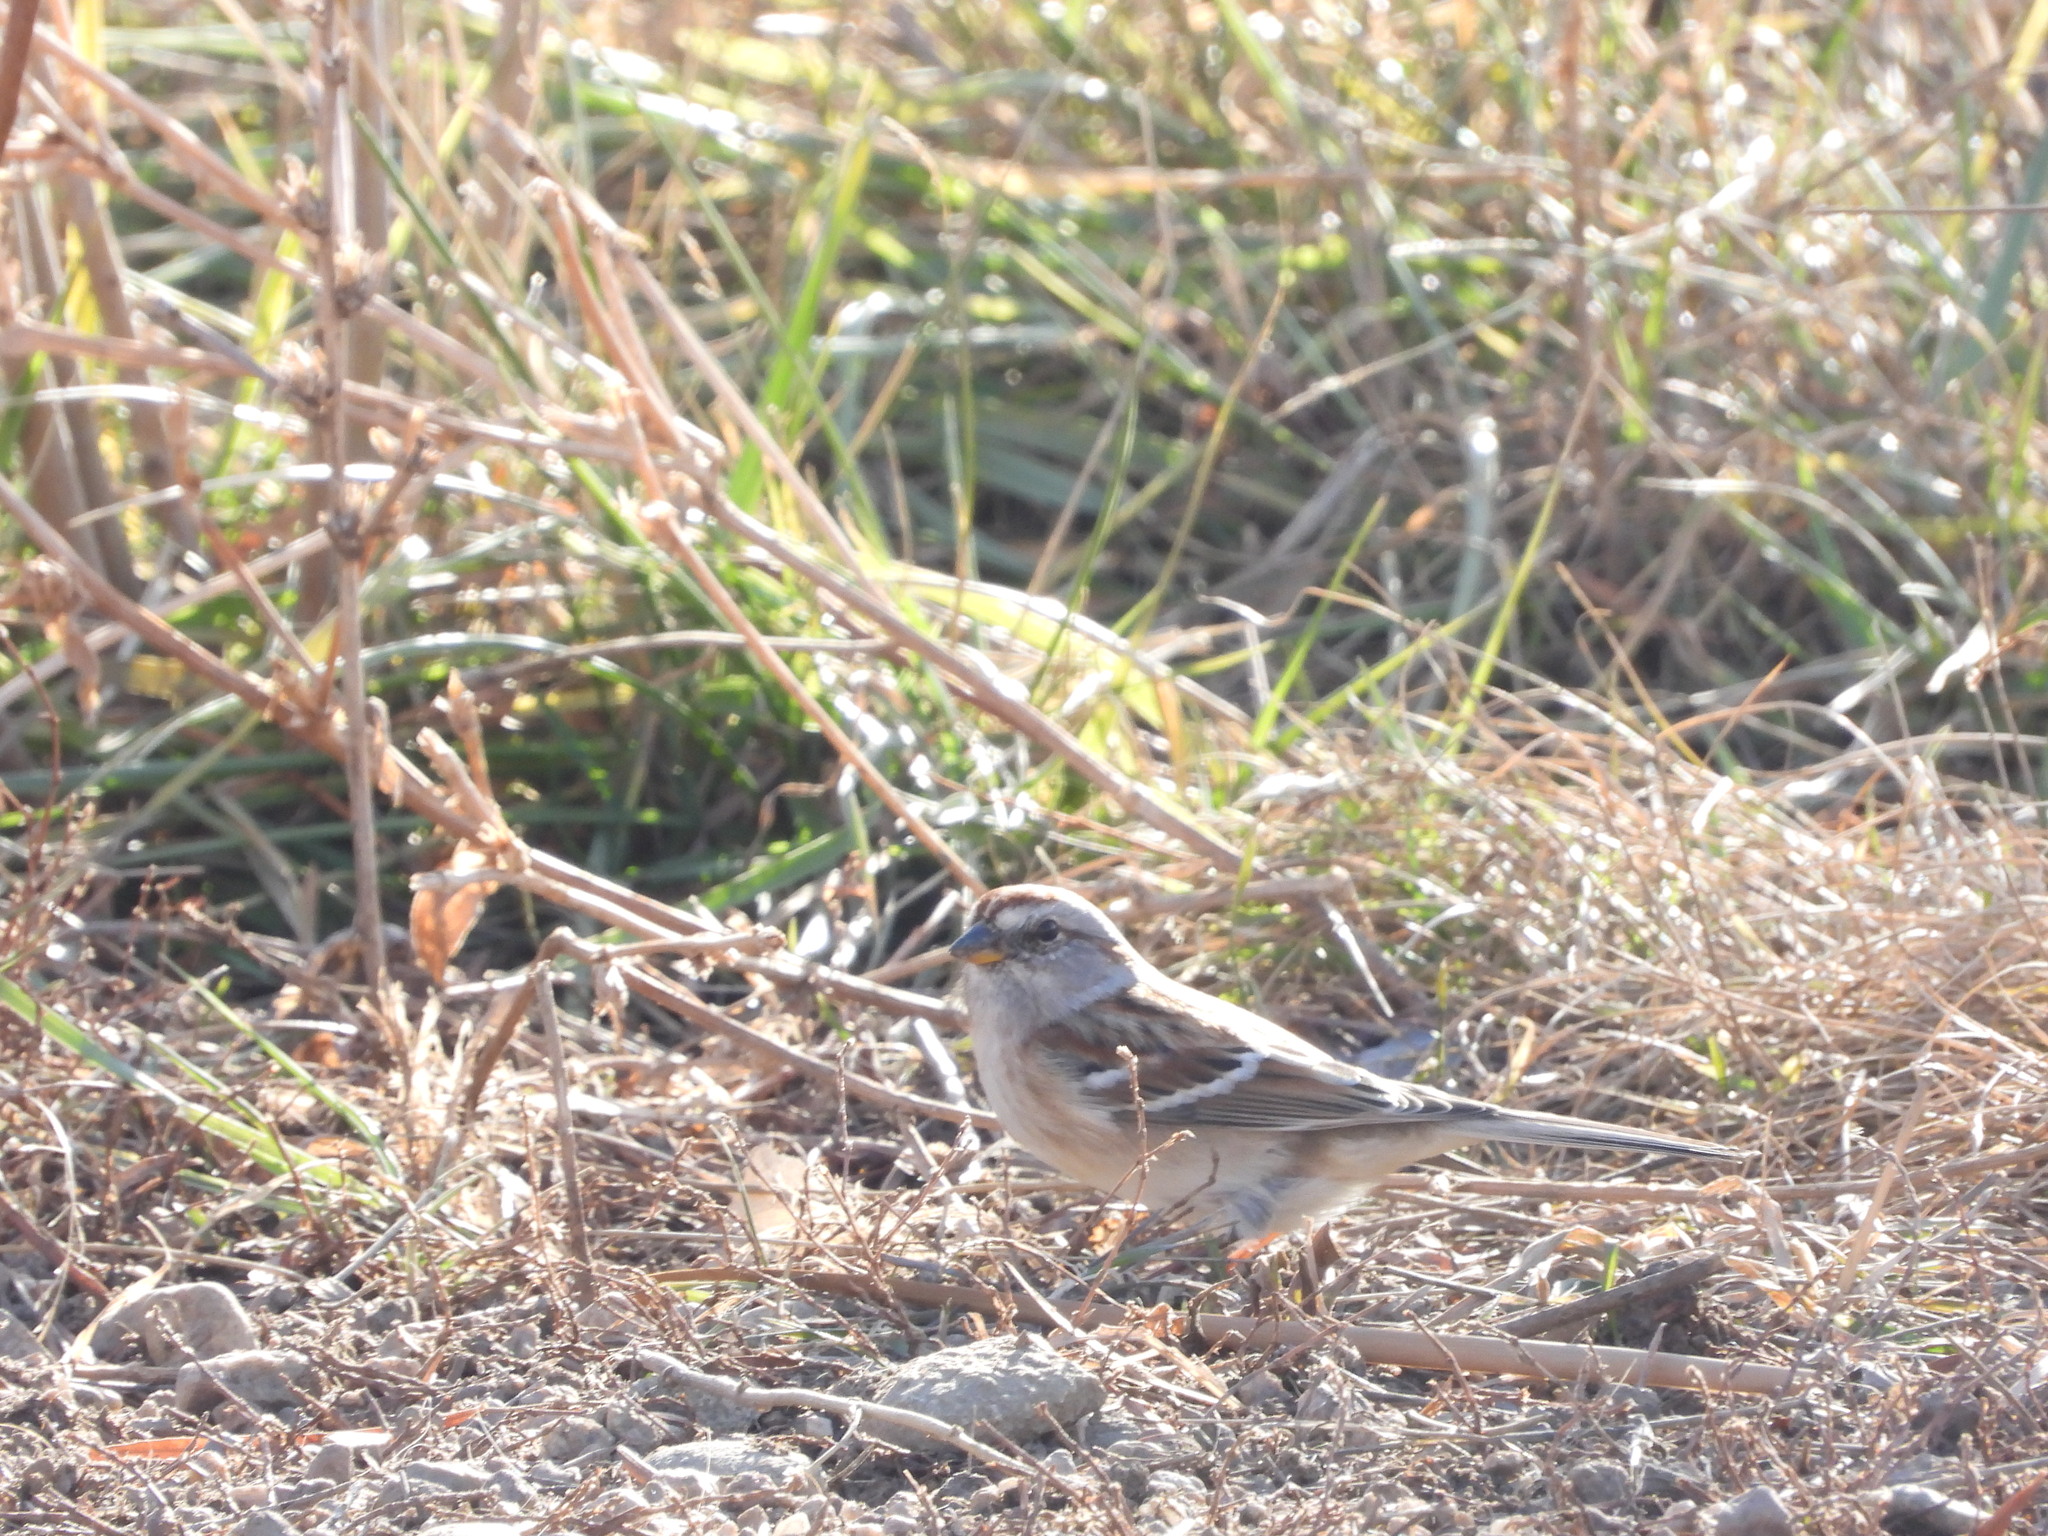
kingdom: Animalia
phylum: Chordata
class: Aves
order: Passeriformes
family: Passerellidae
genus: Spizelloides
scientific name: Spizelloides arborea
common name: American tree sparrow
